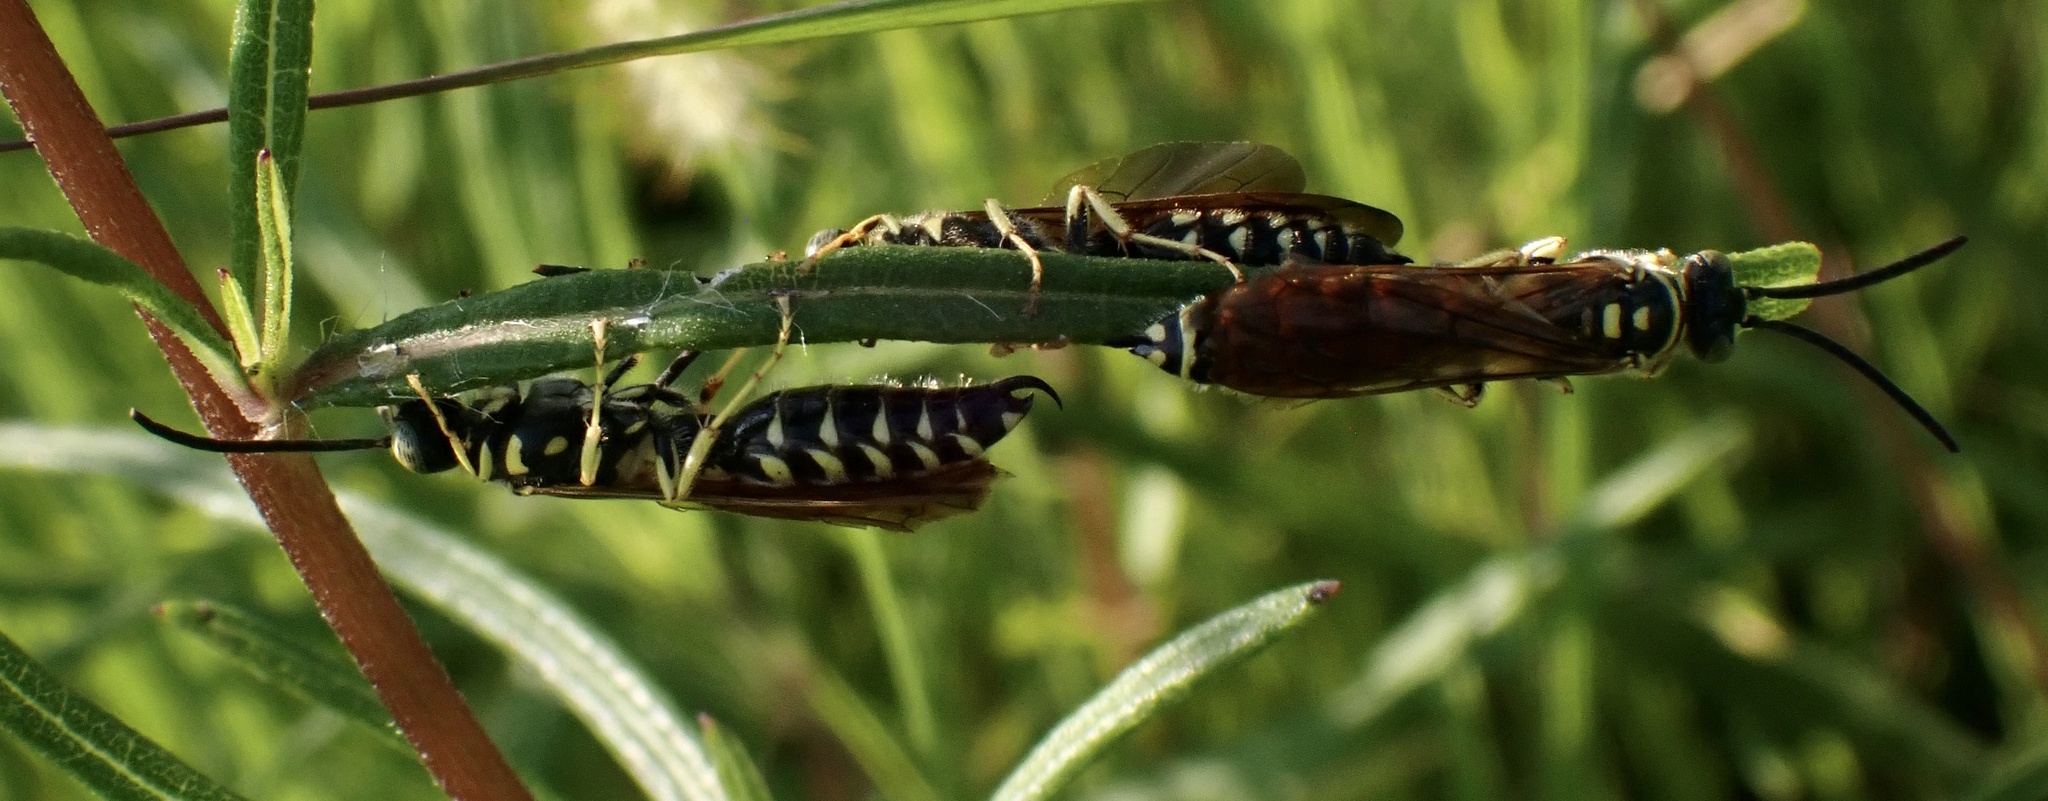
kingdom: Animalia
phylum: Arthropoda
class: Insecta
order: Hymenoptera
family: Tiphiidae
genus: Myzinum
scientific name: Myzinum quinquecinctum
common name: Five-banded thynnid wasp
